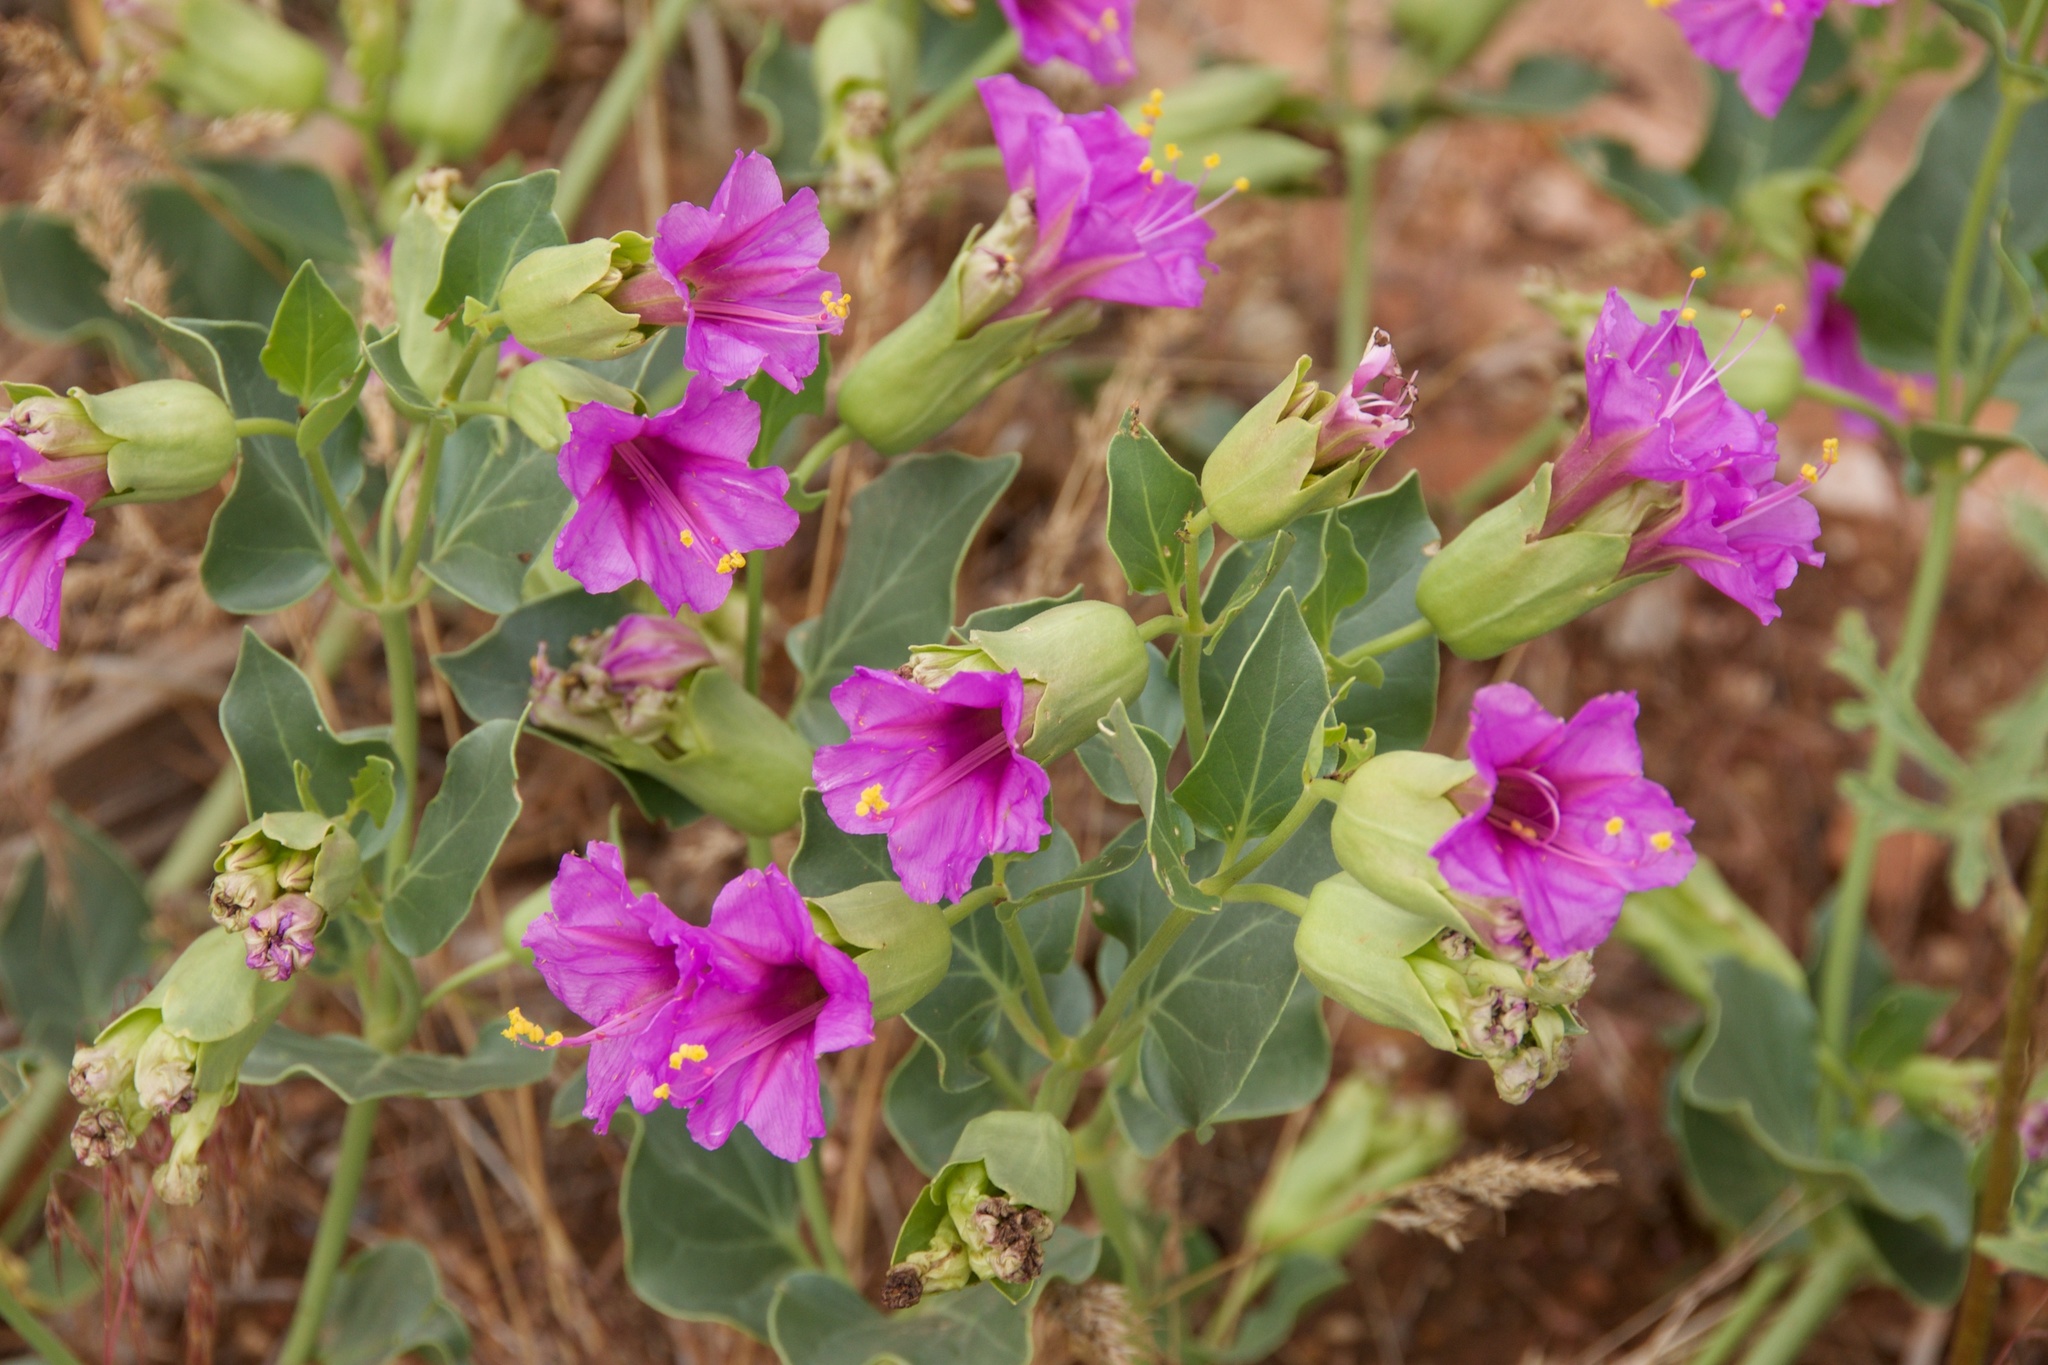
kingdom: Plantae
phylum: Tracheophyta
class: Magnoliopsida
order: Caryophyllales
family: Nyctaginaceae
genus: Mirabilis
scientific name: Mirabilis multiflora
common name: Froebel's four-o'clock
